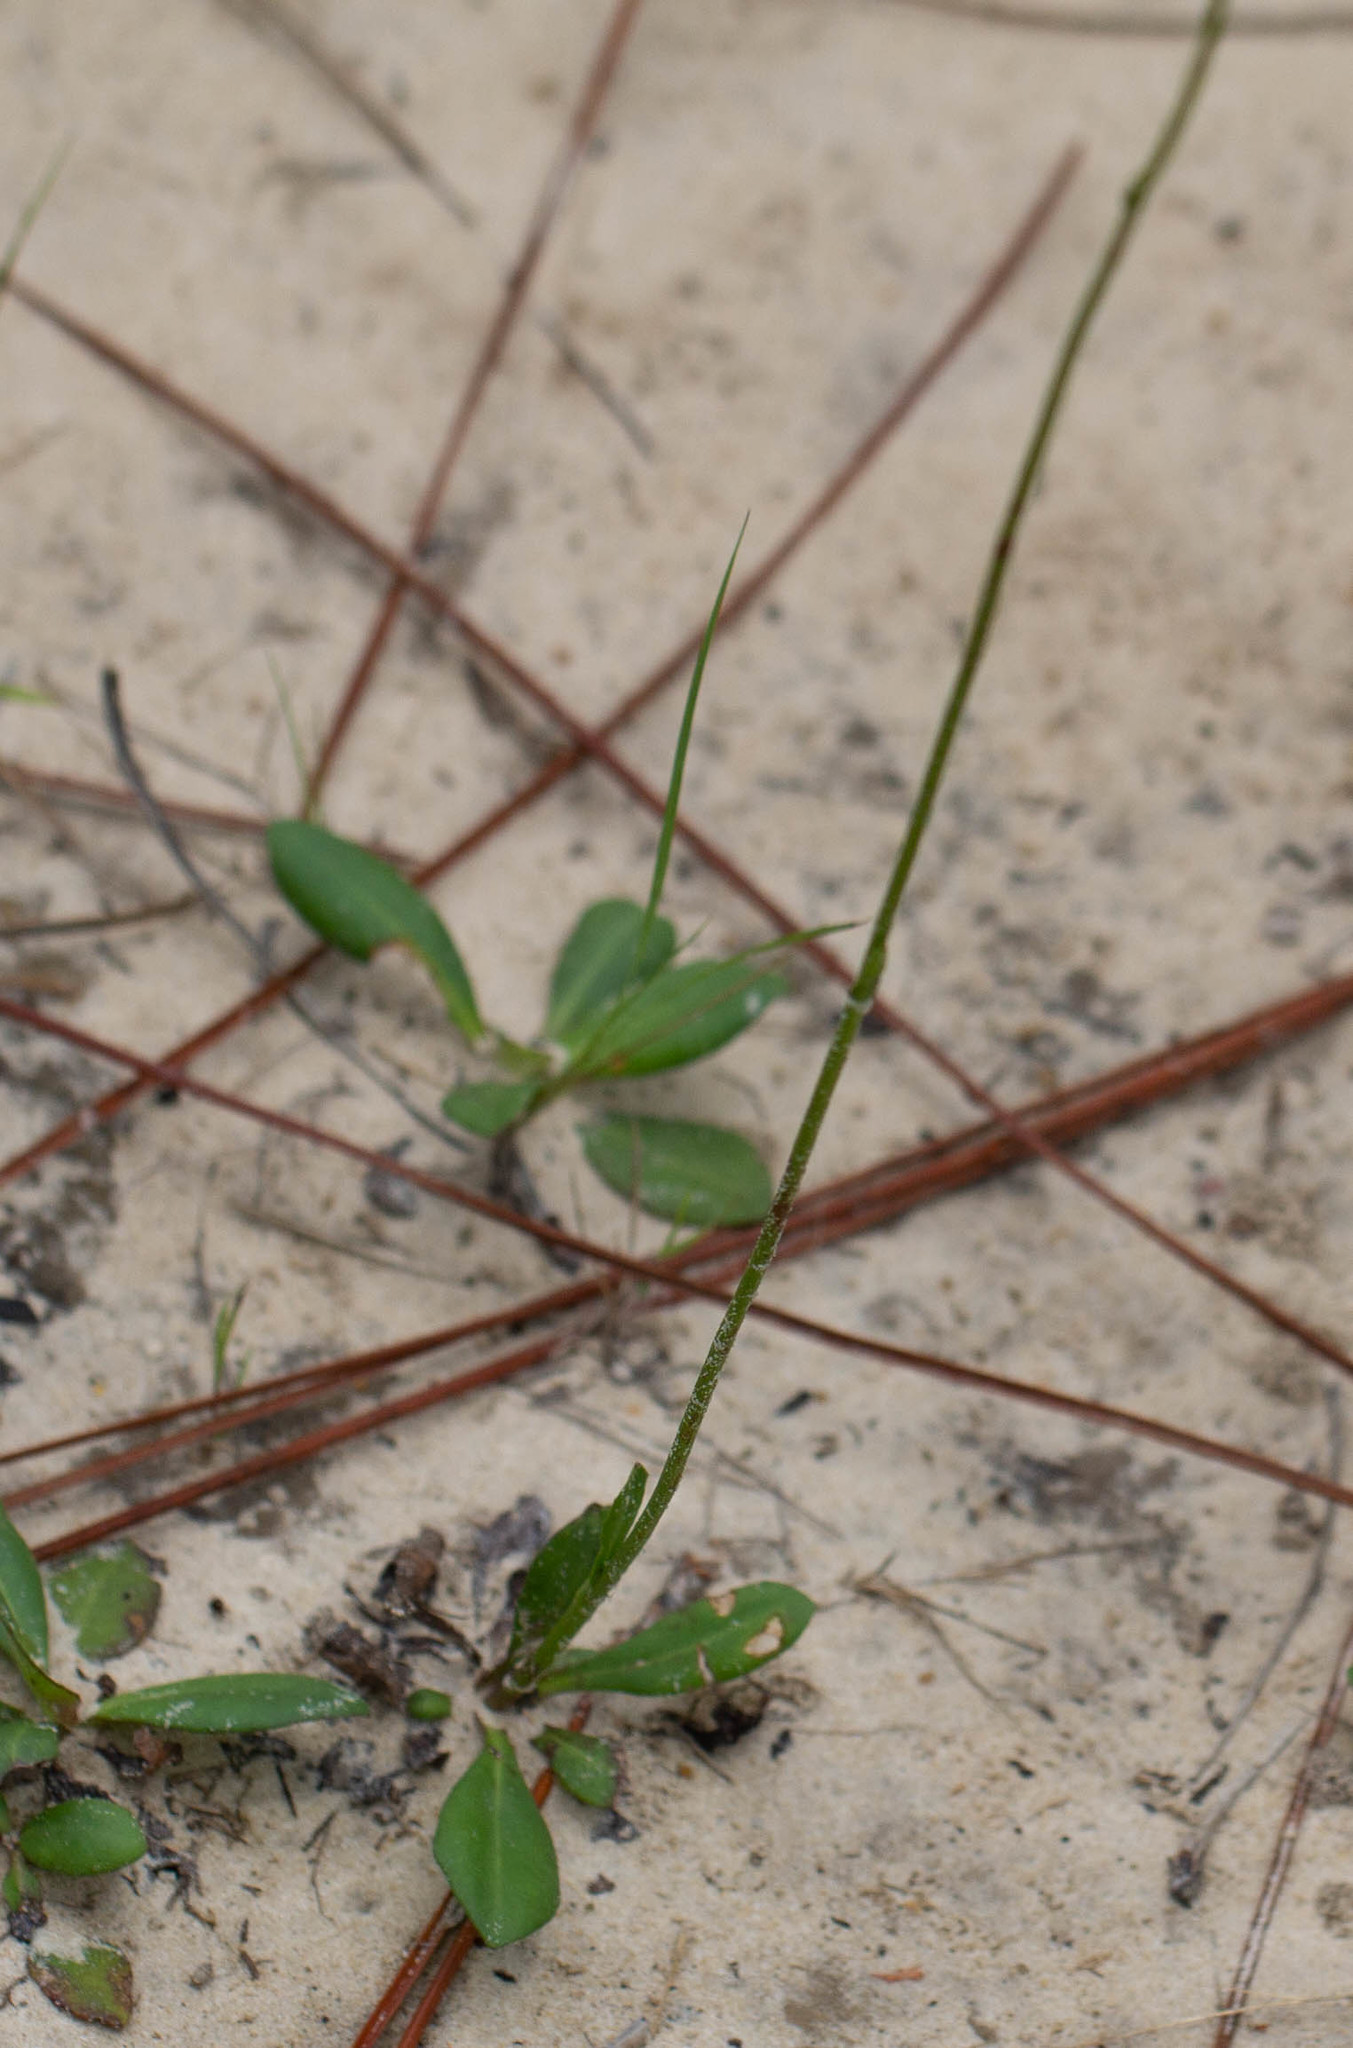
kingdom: Plantae
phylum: Tracheophyta
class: Magnoliopsida
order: Asterales
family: Asteraceae
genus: Erigeron
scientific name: Erigeron vernus
